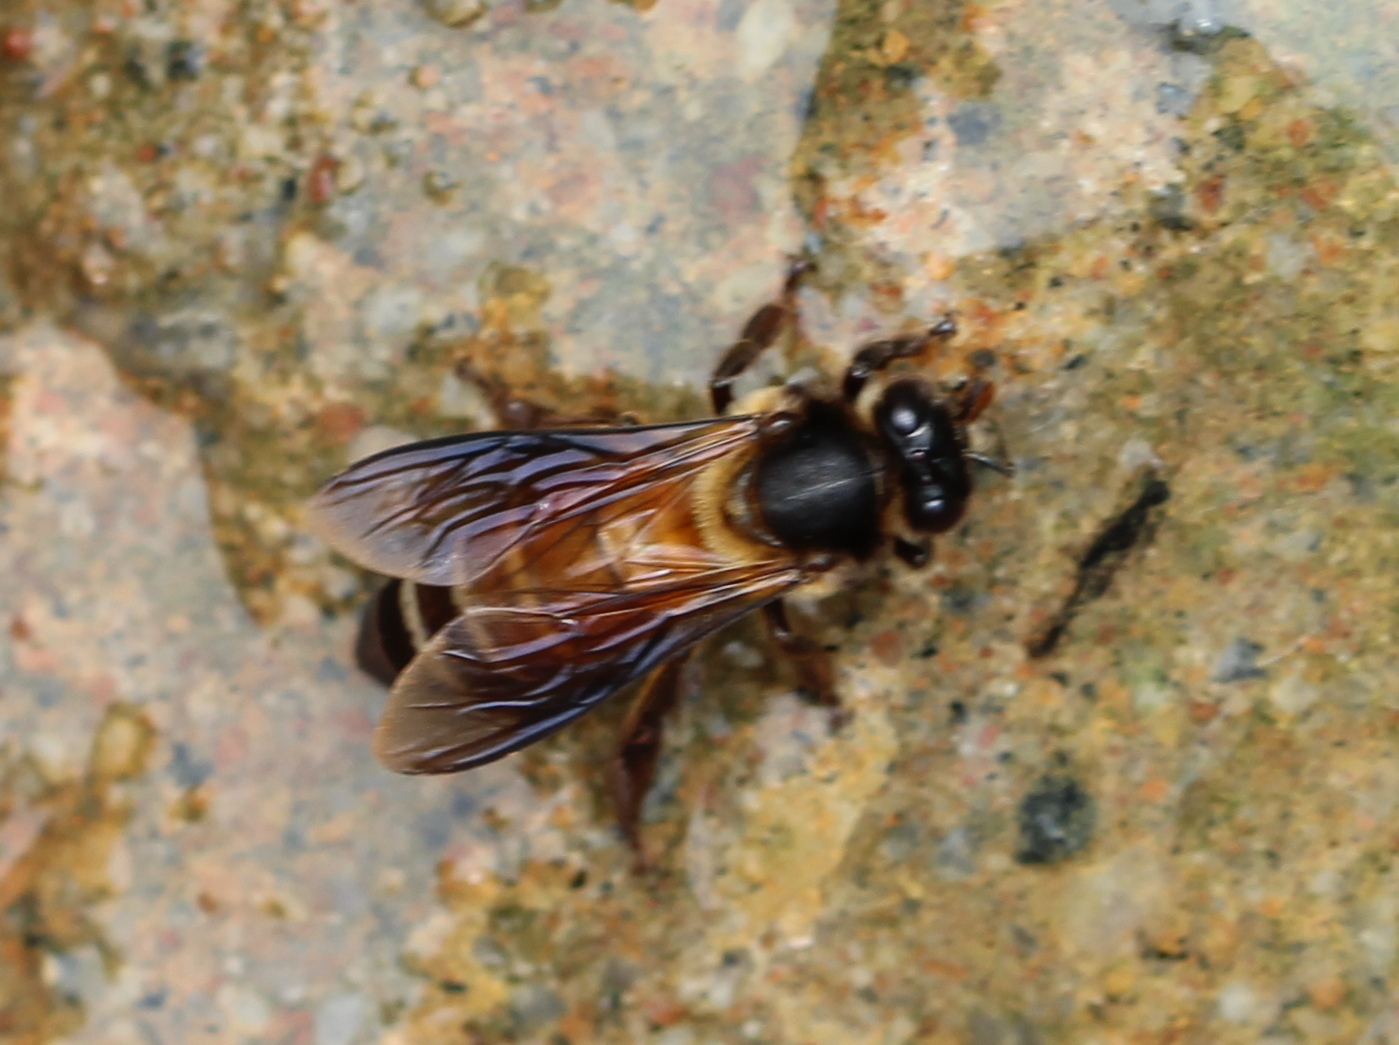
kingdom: Animalia
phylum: Arthropoda
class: Insecta
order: Hymenoptera
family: Apidae
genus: Apis
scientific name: Apis dorsata
